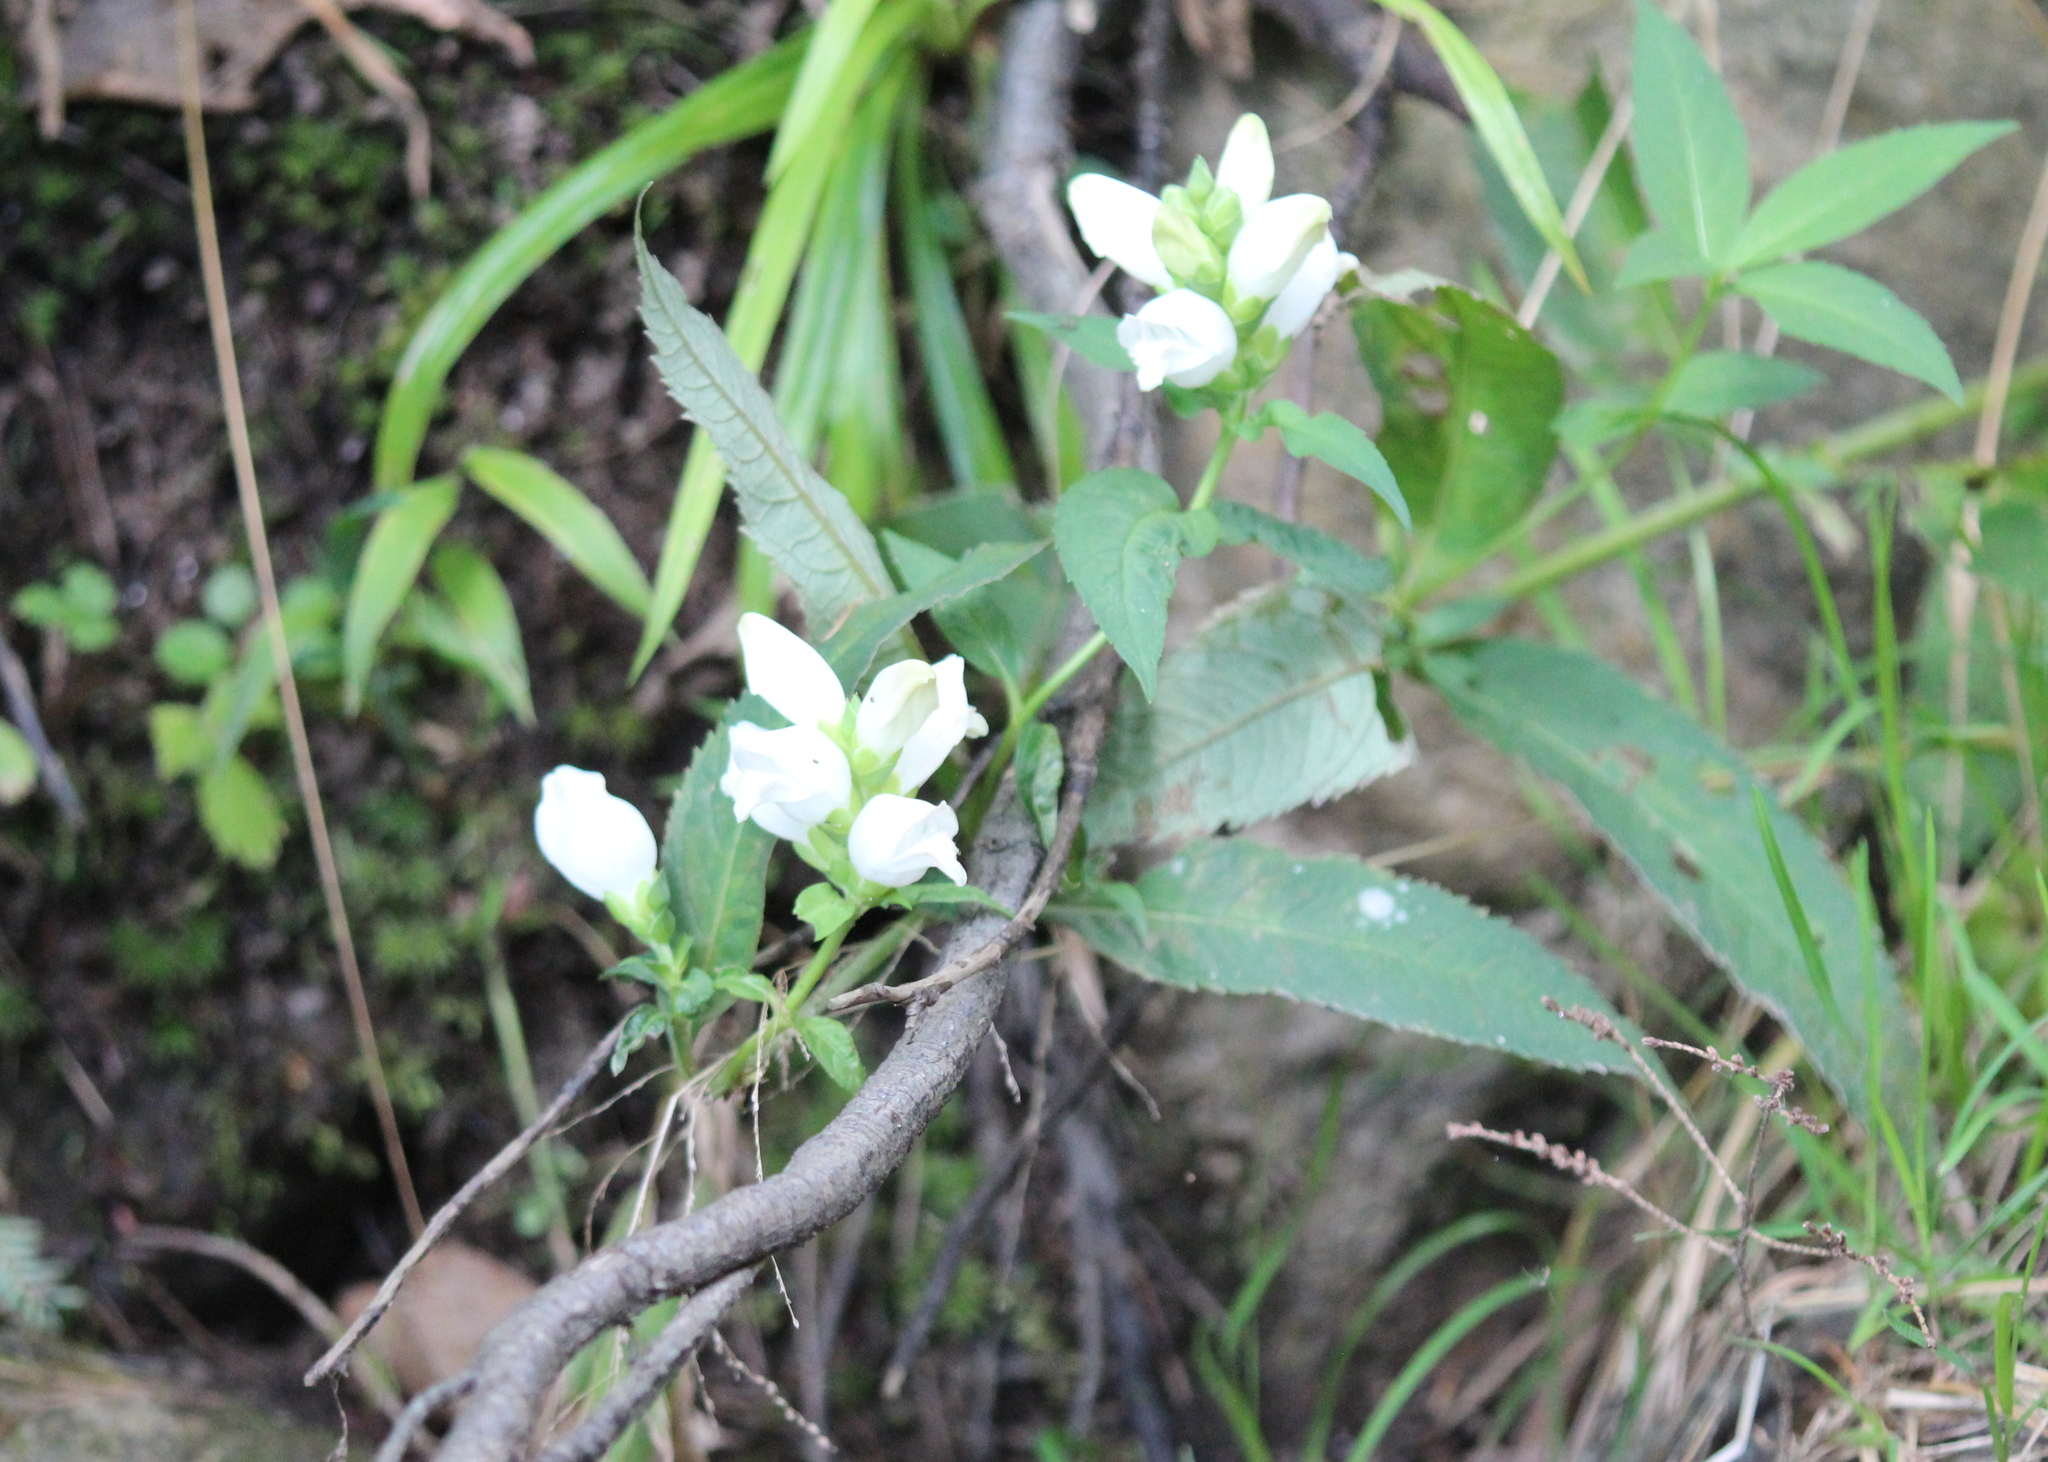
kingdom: Plantae
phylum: Tracheophyta
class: Magnoliopsida
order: Lamiales
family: Plantaginaceae
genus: Chelone
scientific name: Chelone glabra
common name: Snakehead
